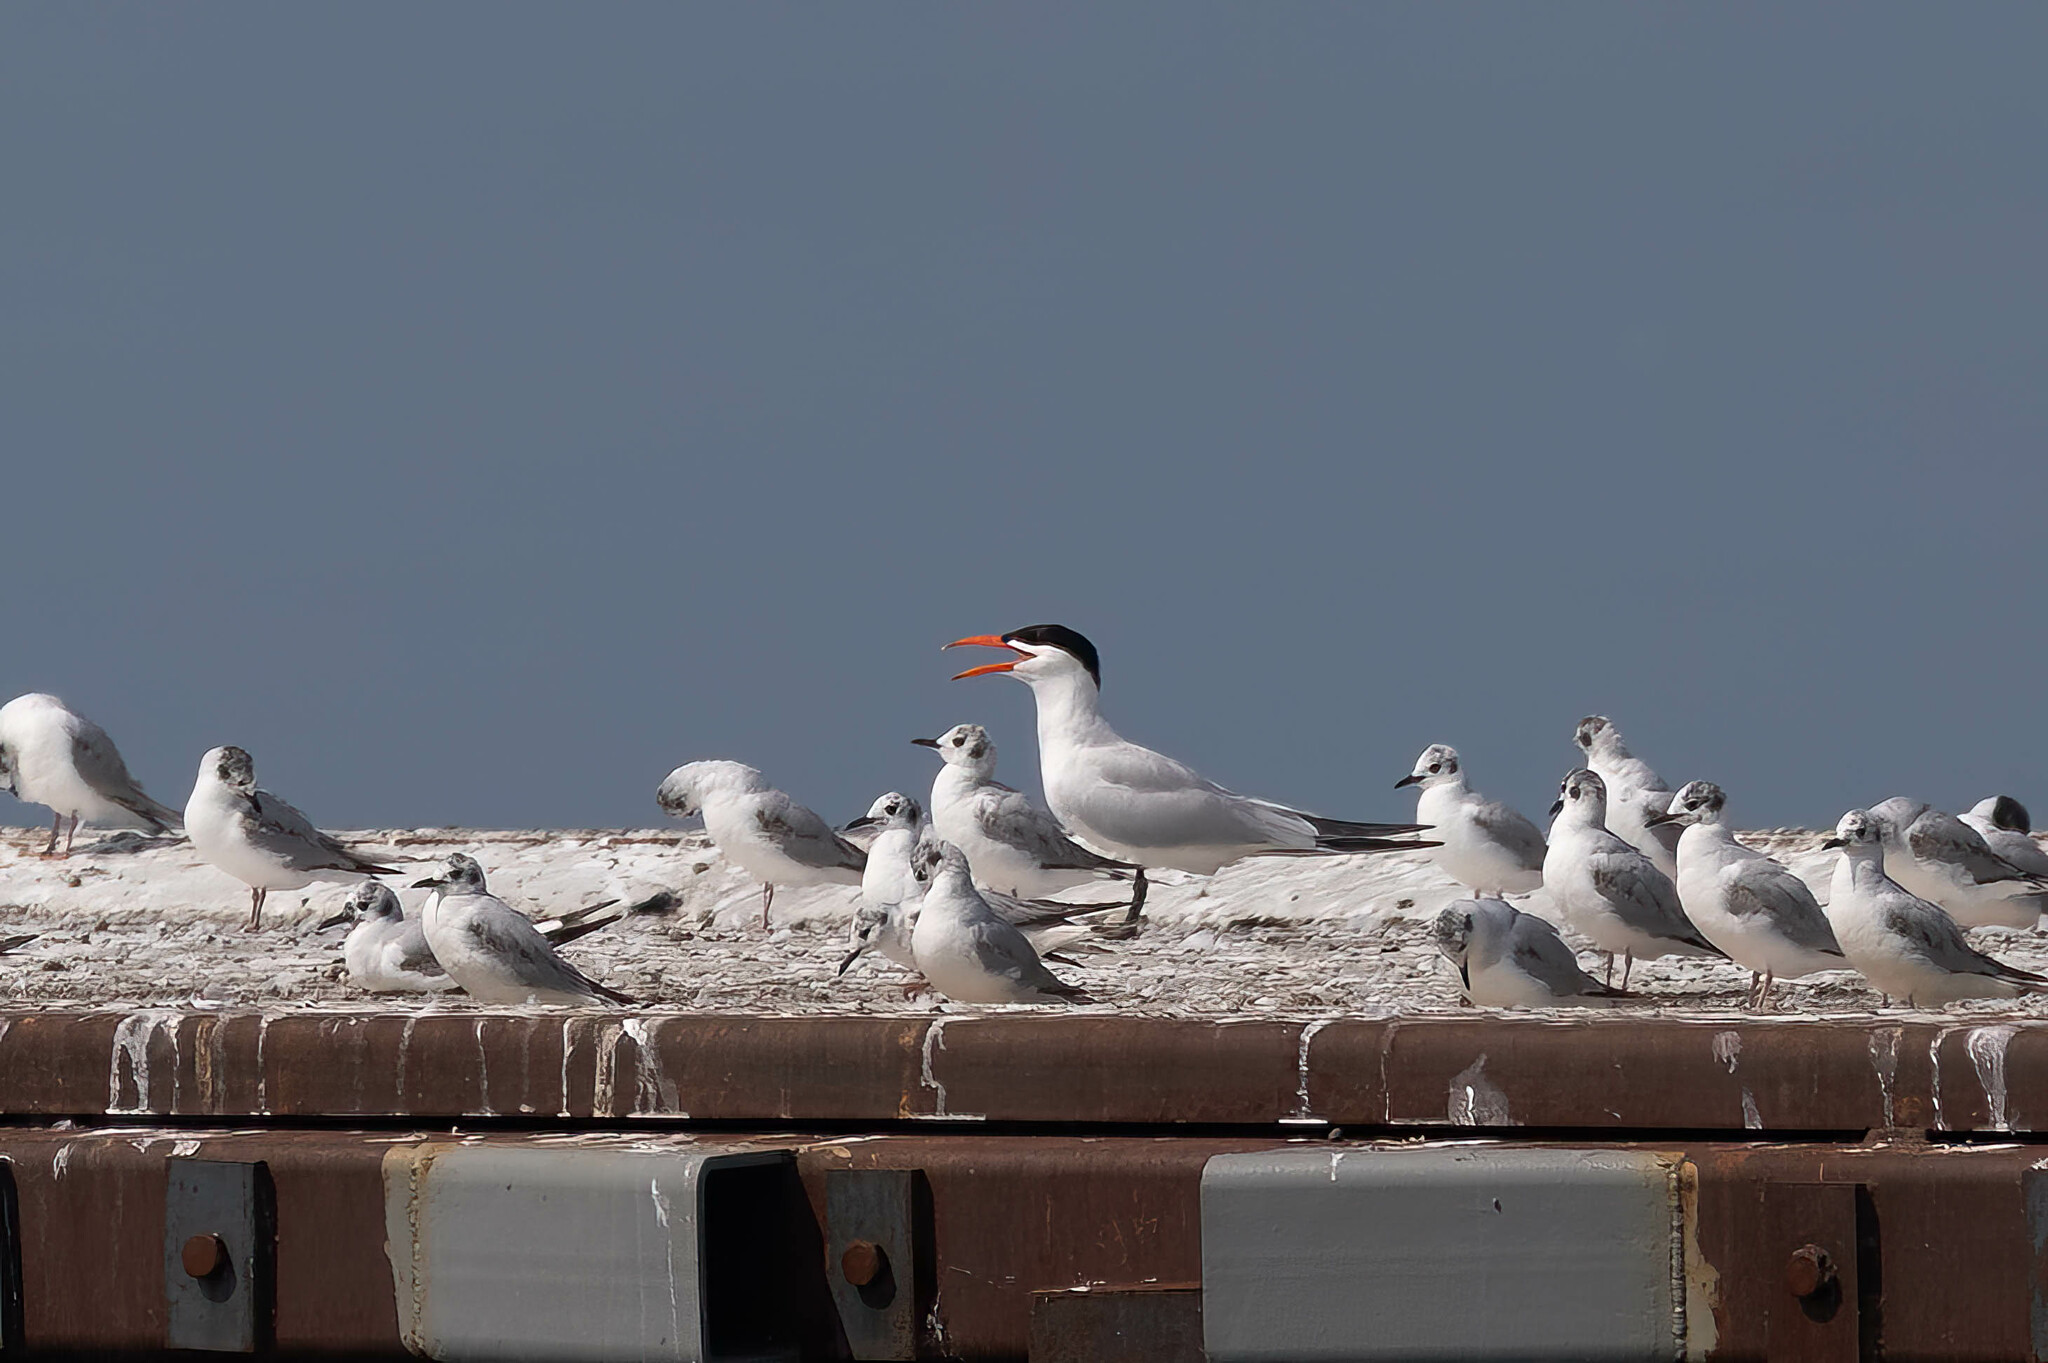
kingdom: Animalia
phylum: Chordata
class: Aves
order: Charadriiformes
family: Laridae
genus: Hydroprogne
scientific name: Hydroprogne caspia
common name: Caspian tern
